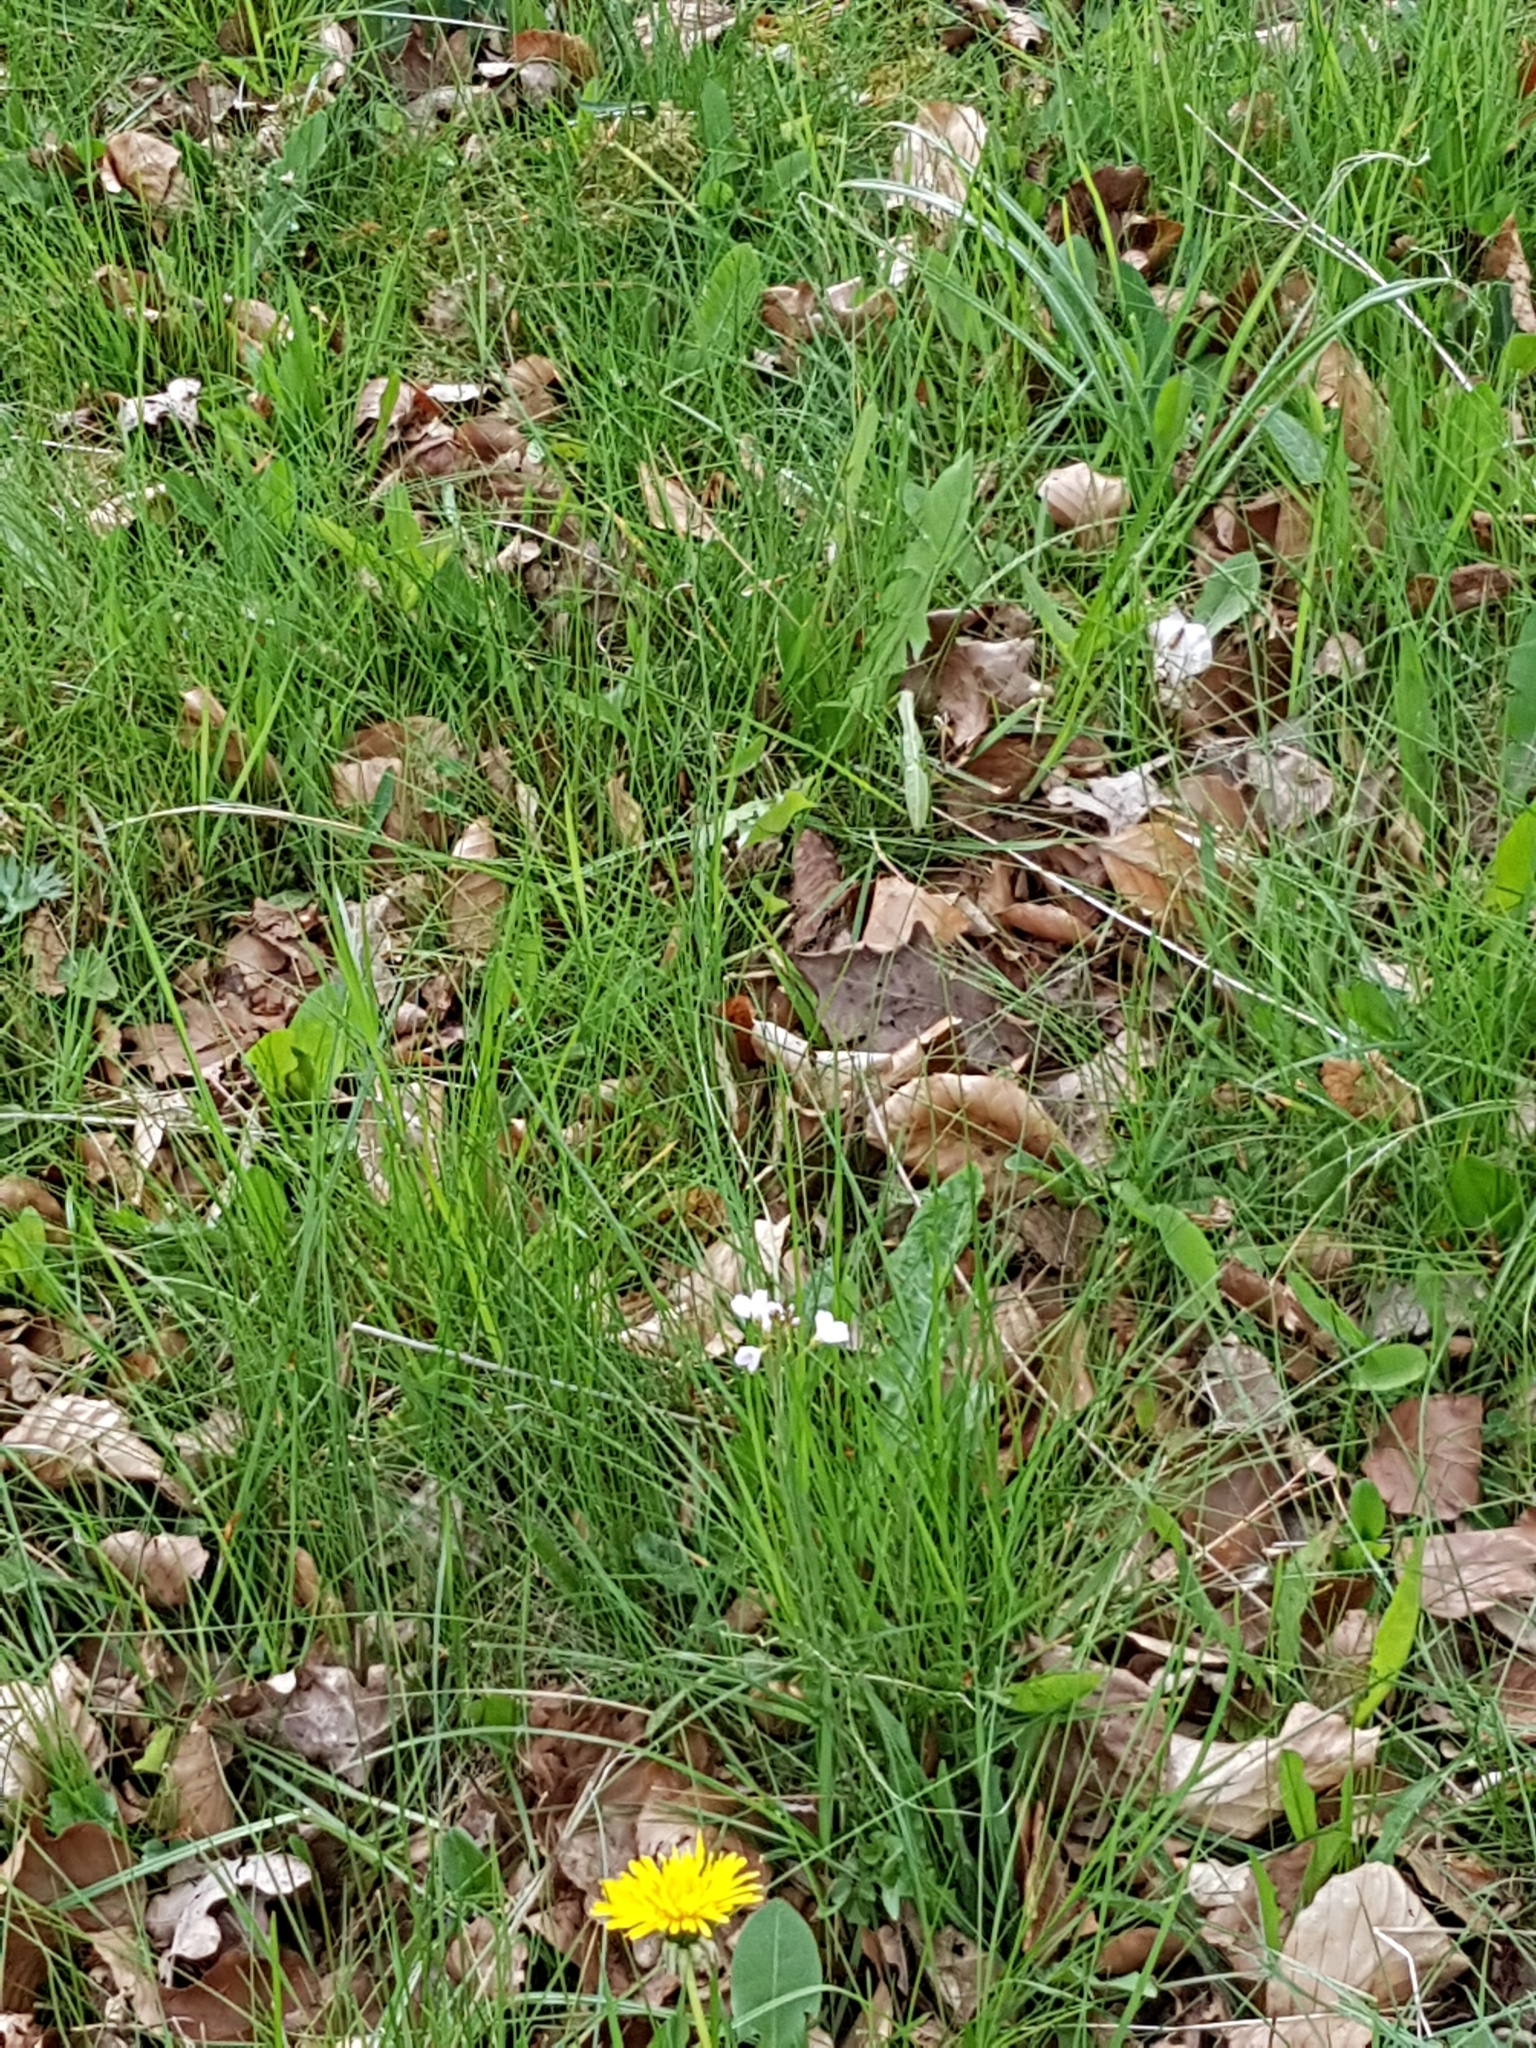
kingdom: Plantae
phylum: Tracheophyta
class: Magnoliopsida
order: Brassicales
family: Brassicaceae
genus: Cardamine
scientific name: Cardamine pratensis
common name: Cuckoo flower
